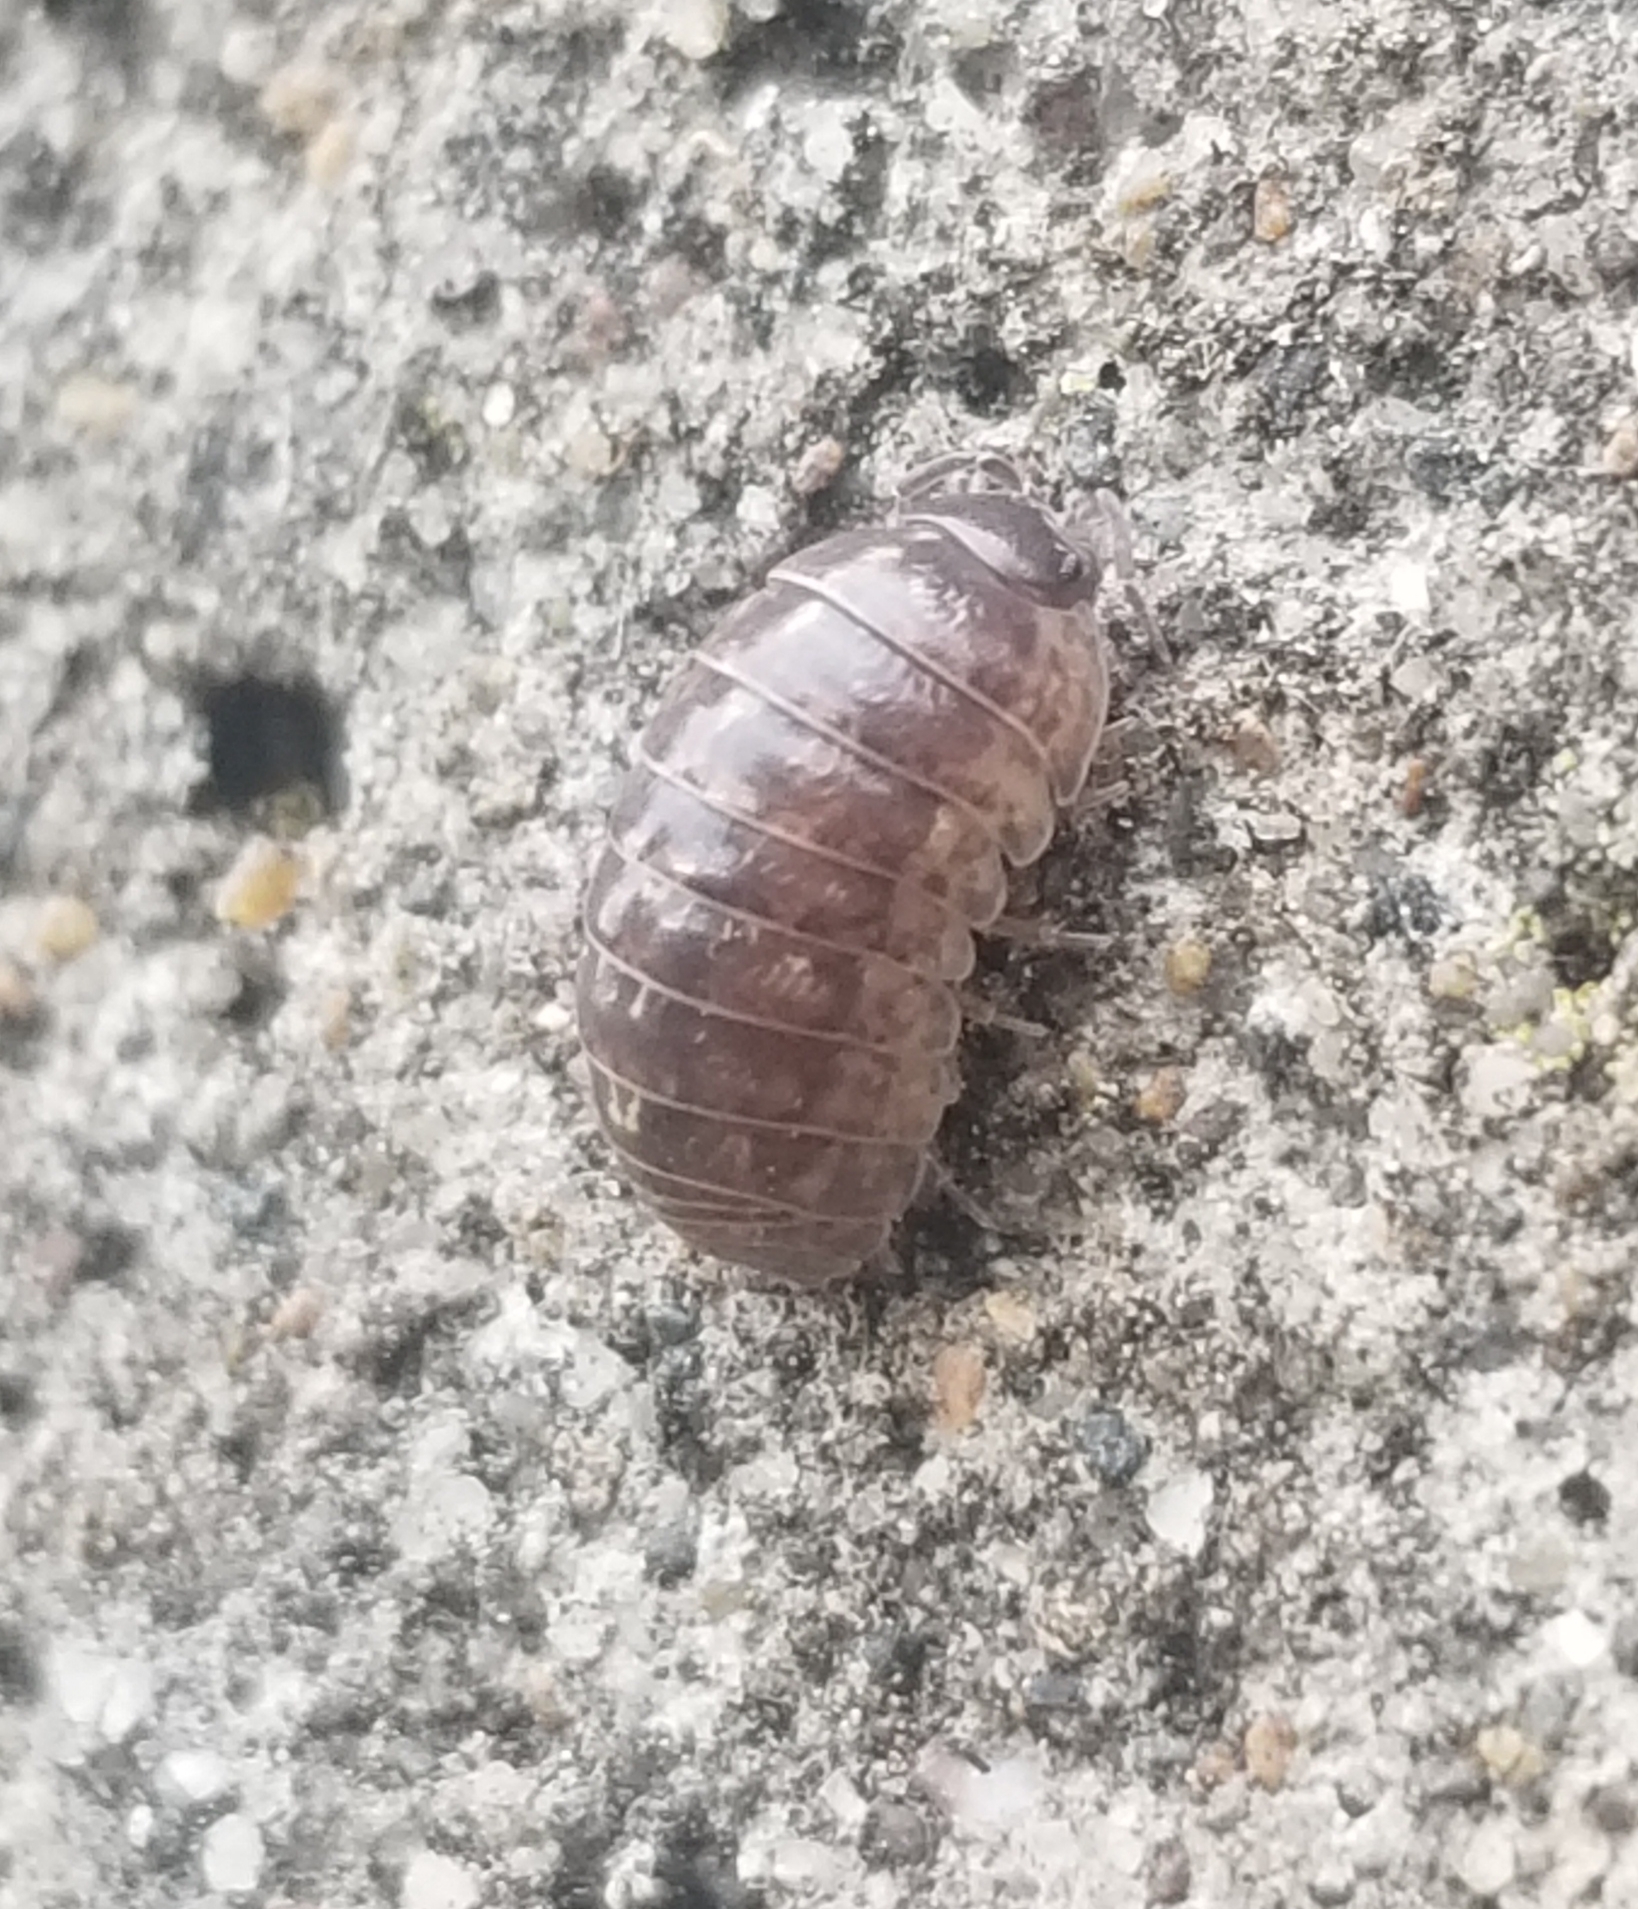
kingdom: Animalia
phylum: Arthropoda
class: Malacostraca
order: Isopoda
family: Armadillidiidae
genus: Armadillidium
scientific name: Armadillidium vulgare
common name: Common pill woodlouse
